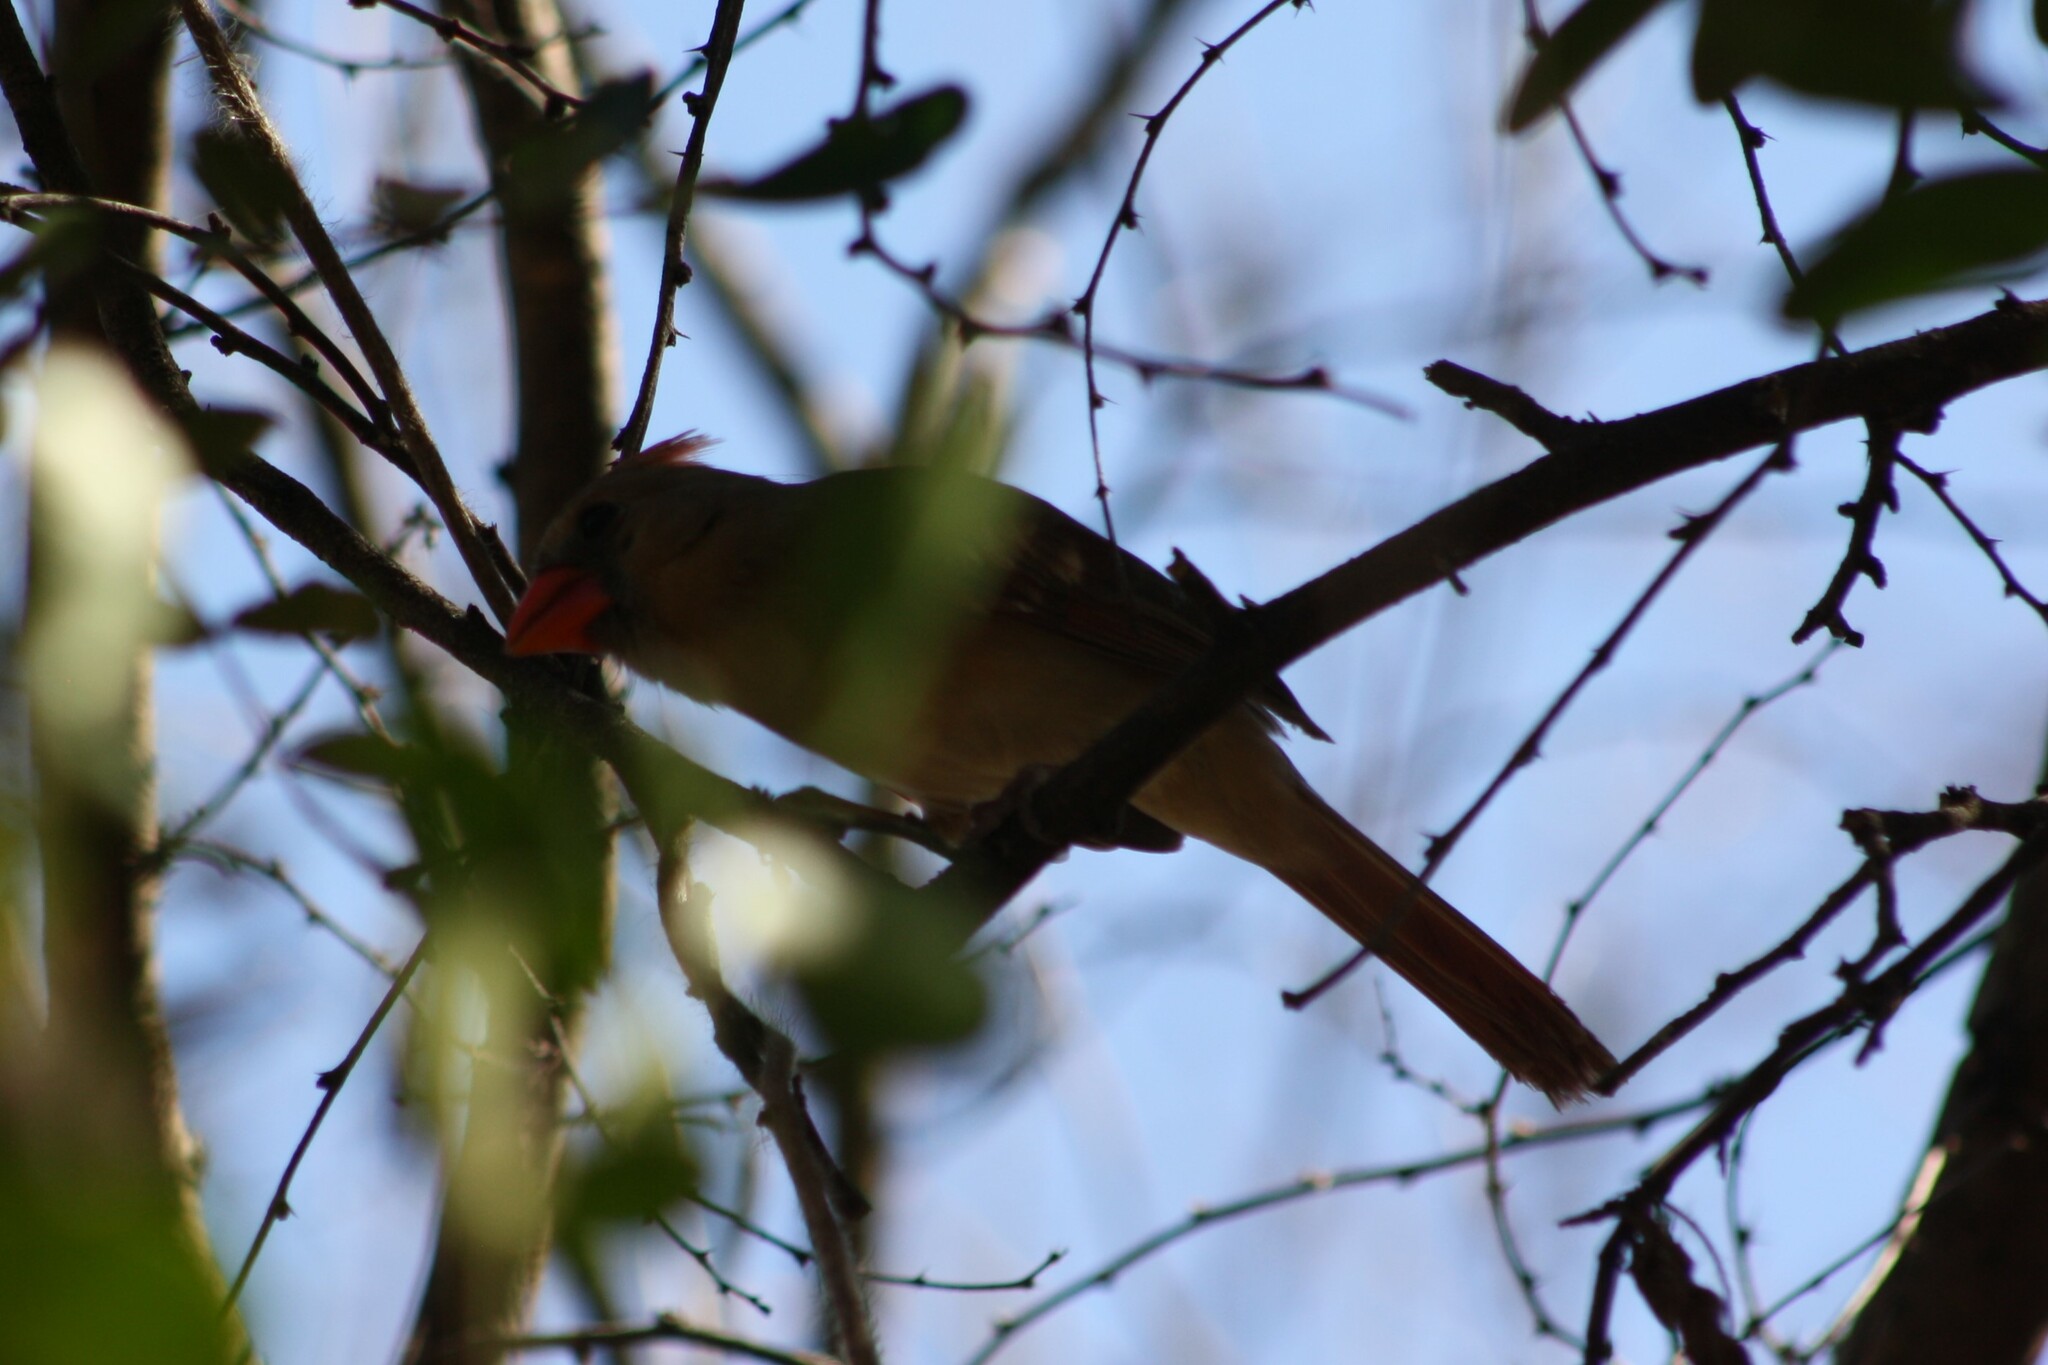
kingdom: Animalia
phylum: Chordata
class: Aves
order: Passeriformes
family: Cardinalidae
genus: Cardinalis
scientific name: Cardinalis cardinalis
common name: Northern cardinal
